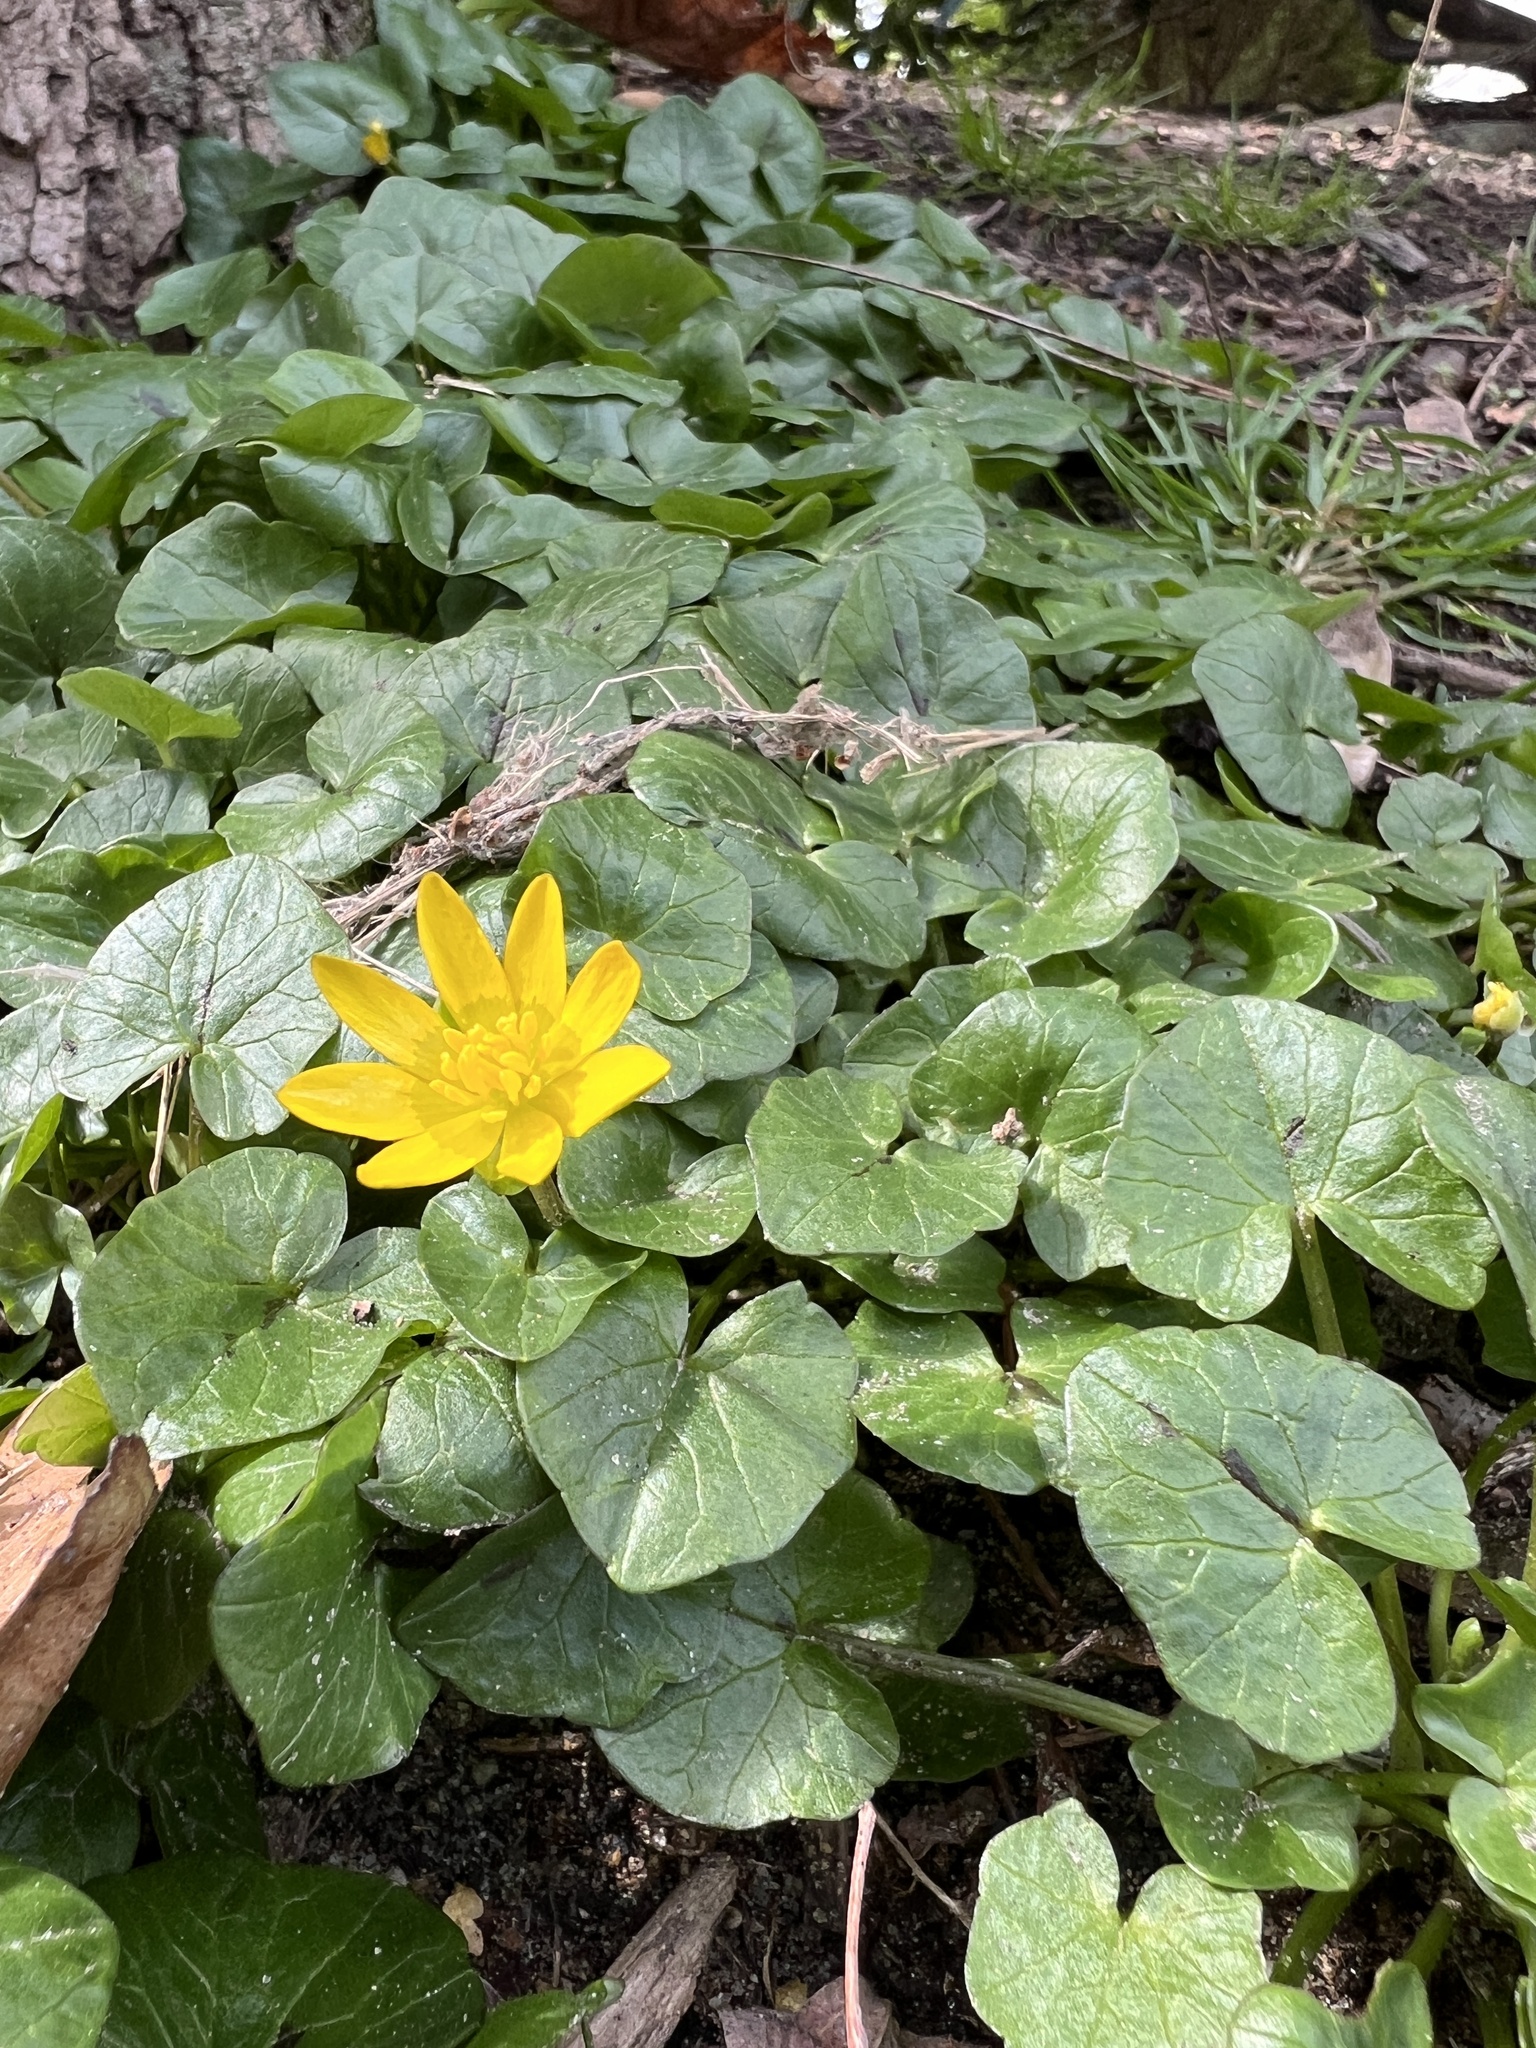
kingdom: Plantae
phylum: Tracheophyta
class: Magnoliopsida
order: Ranunculales
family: Ranunculaceae
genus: Ficaria
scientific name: Ficaria verna
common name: Lesser celandine
